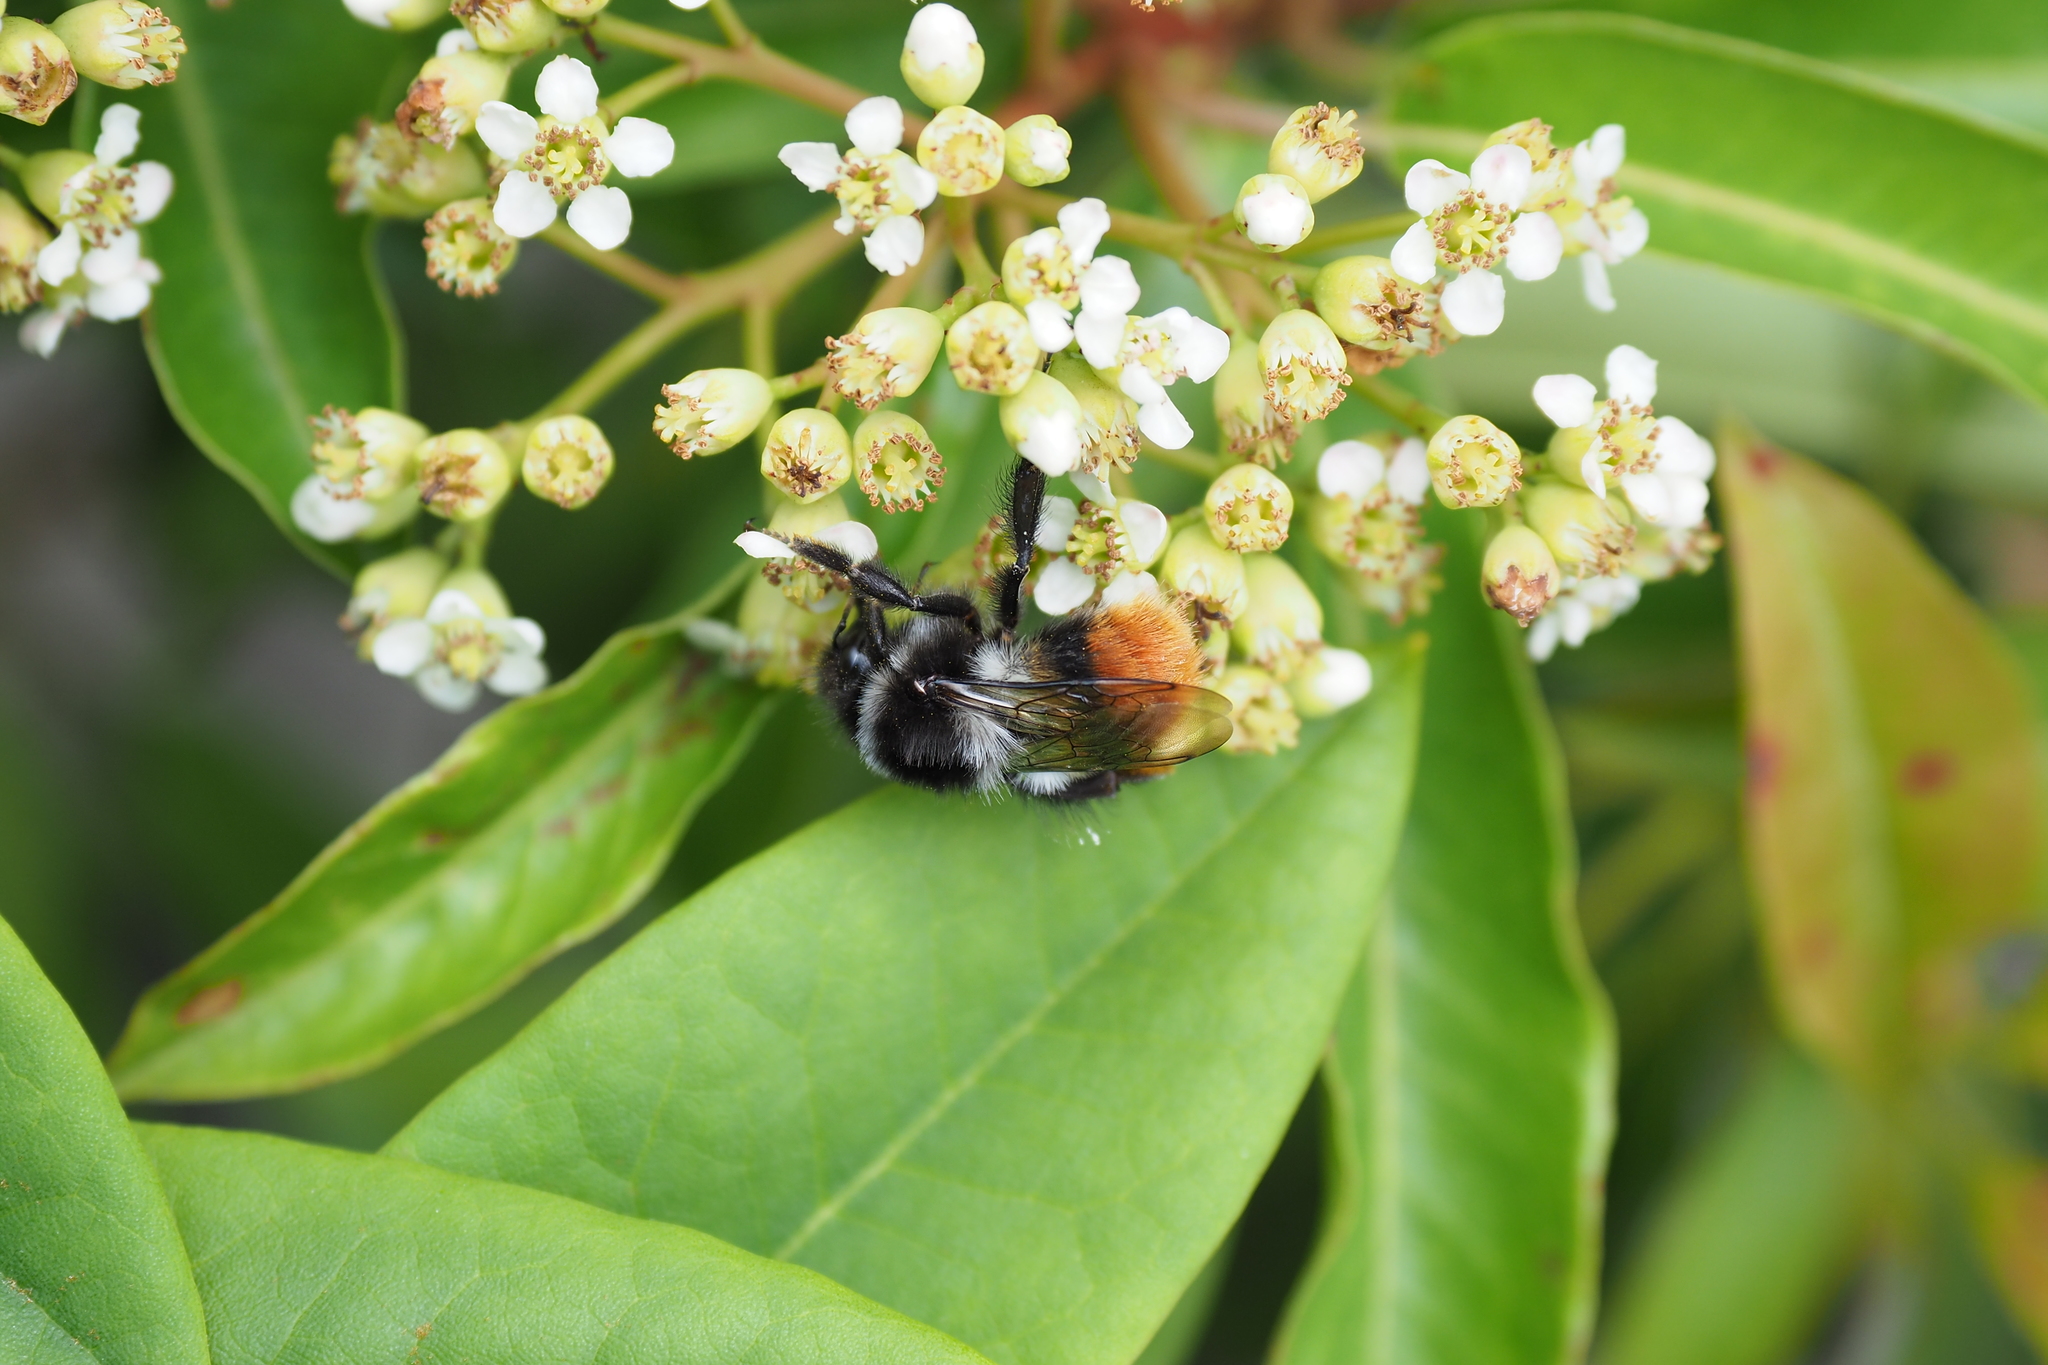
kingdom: Animalia
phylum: Arthropoda
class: Insecta
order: Hymenoptera
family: Apidae
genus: Bombus
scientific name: Bombus formosellus
